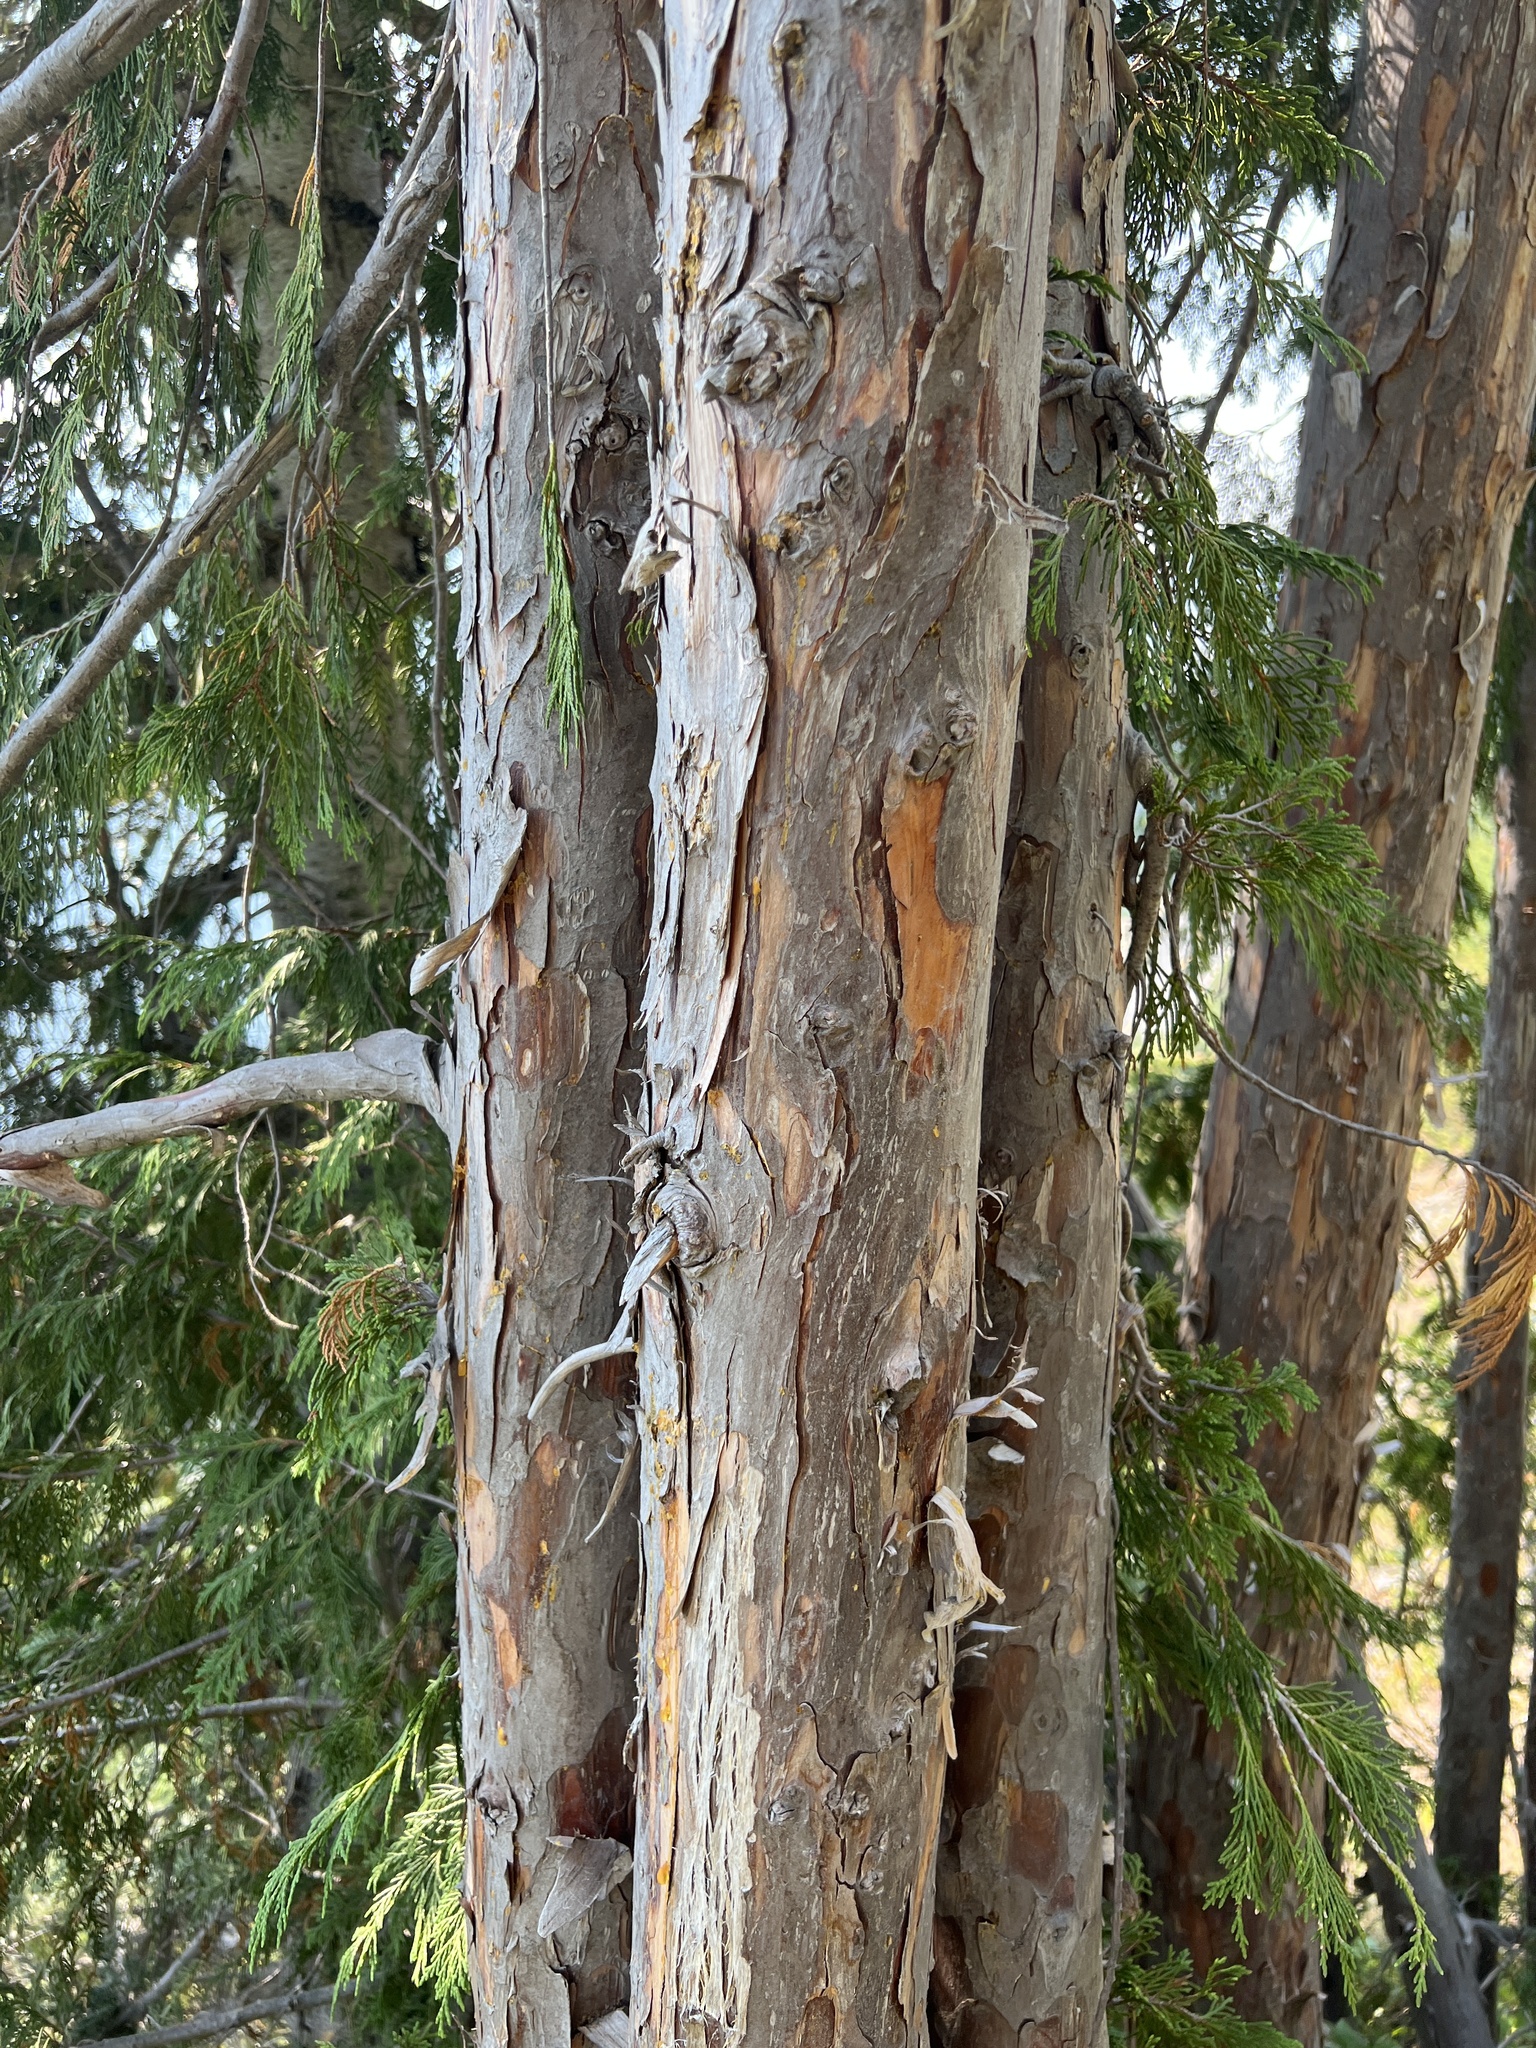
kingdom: Plantae
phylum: Tracheophyta
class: Pinopsida
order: Pinales
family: Cupressaceae
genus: Xanthocyparis
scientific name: Xanthocyparis nootkatensis
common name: Nootka cypress
